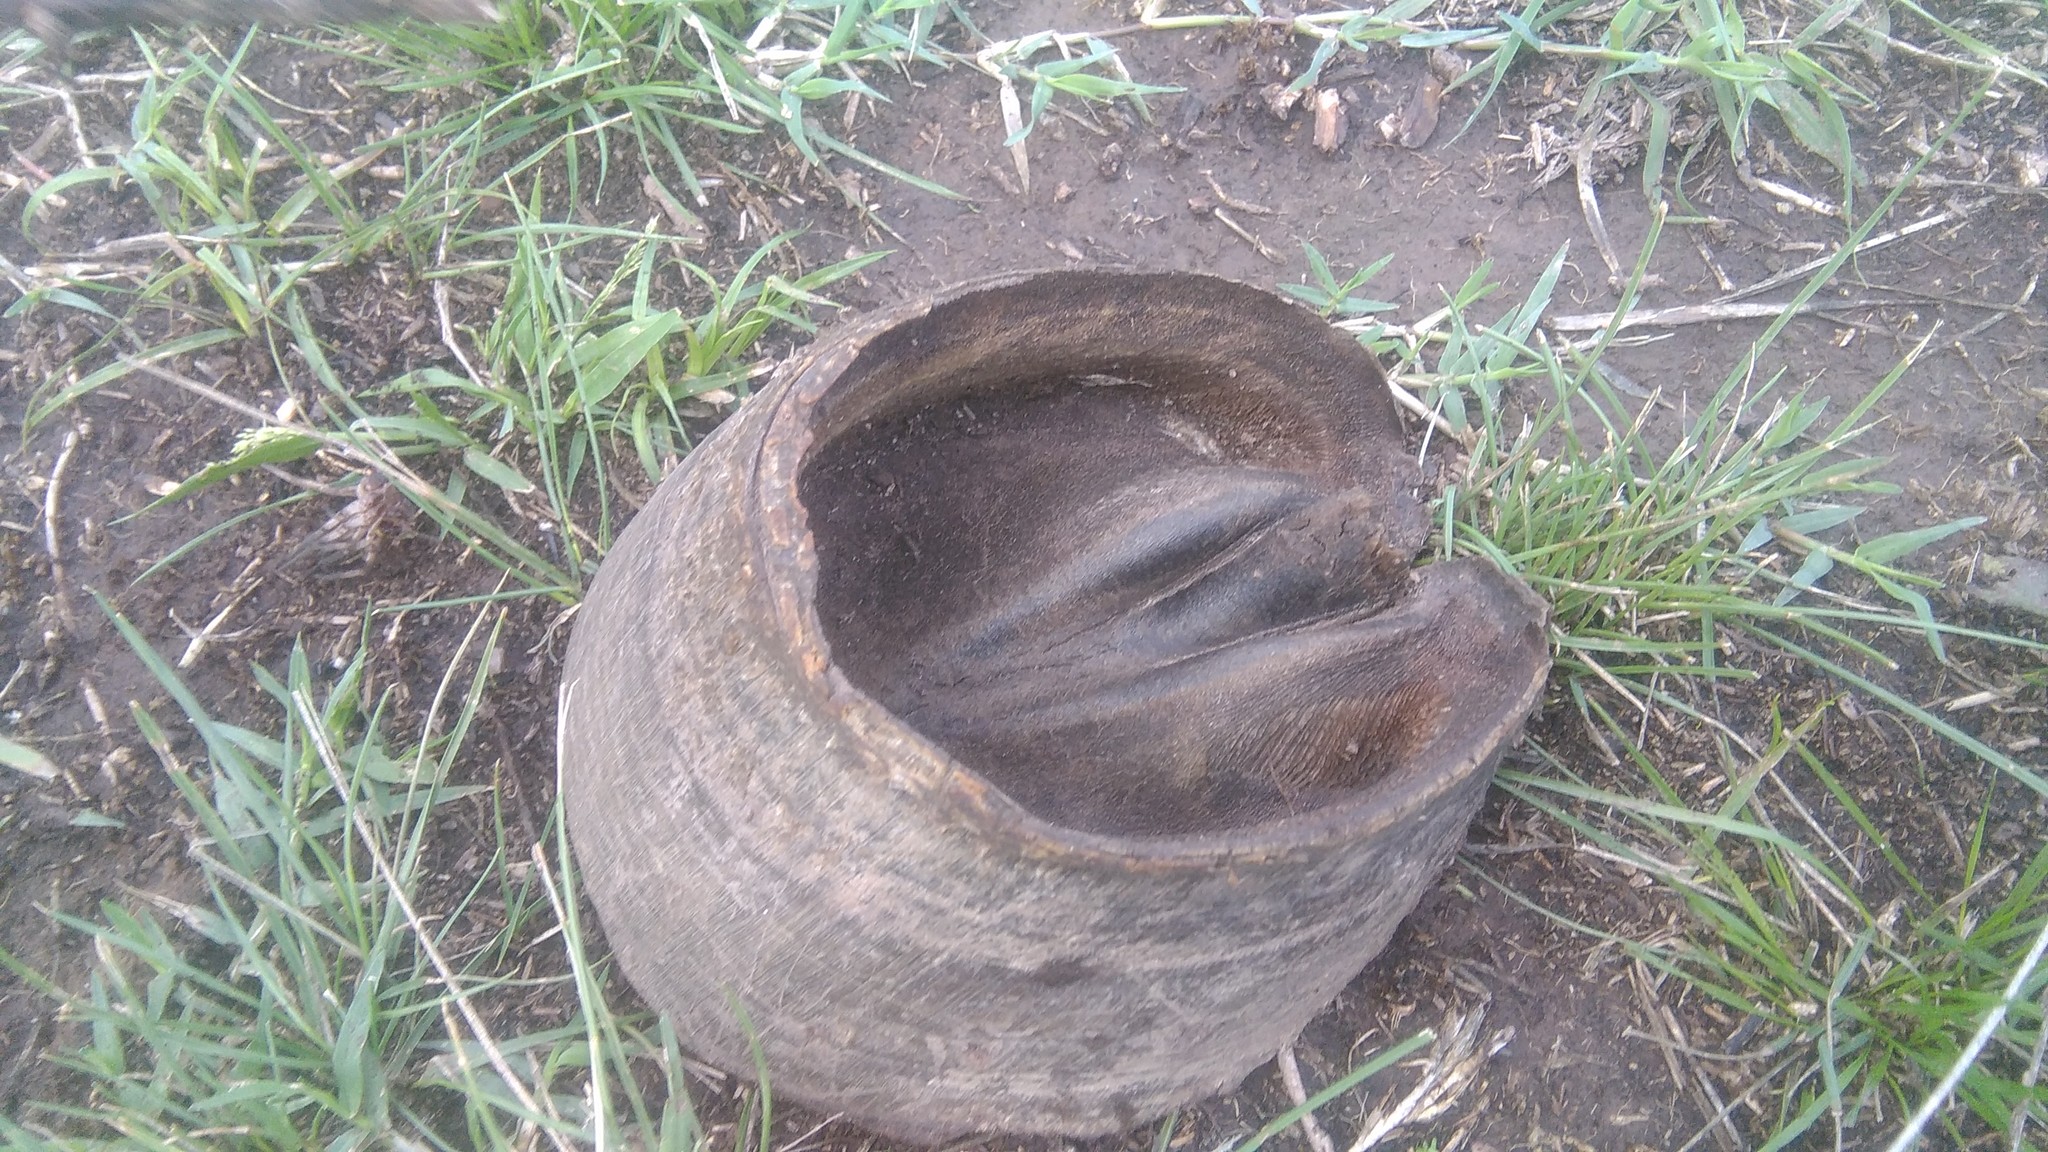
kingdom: Animalia
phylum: Chordata
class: Mammalia
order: Perissodactyla
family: Equidae
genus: Equus
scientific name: Equus caballus
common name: Horse
